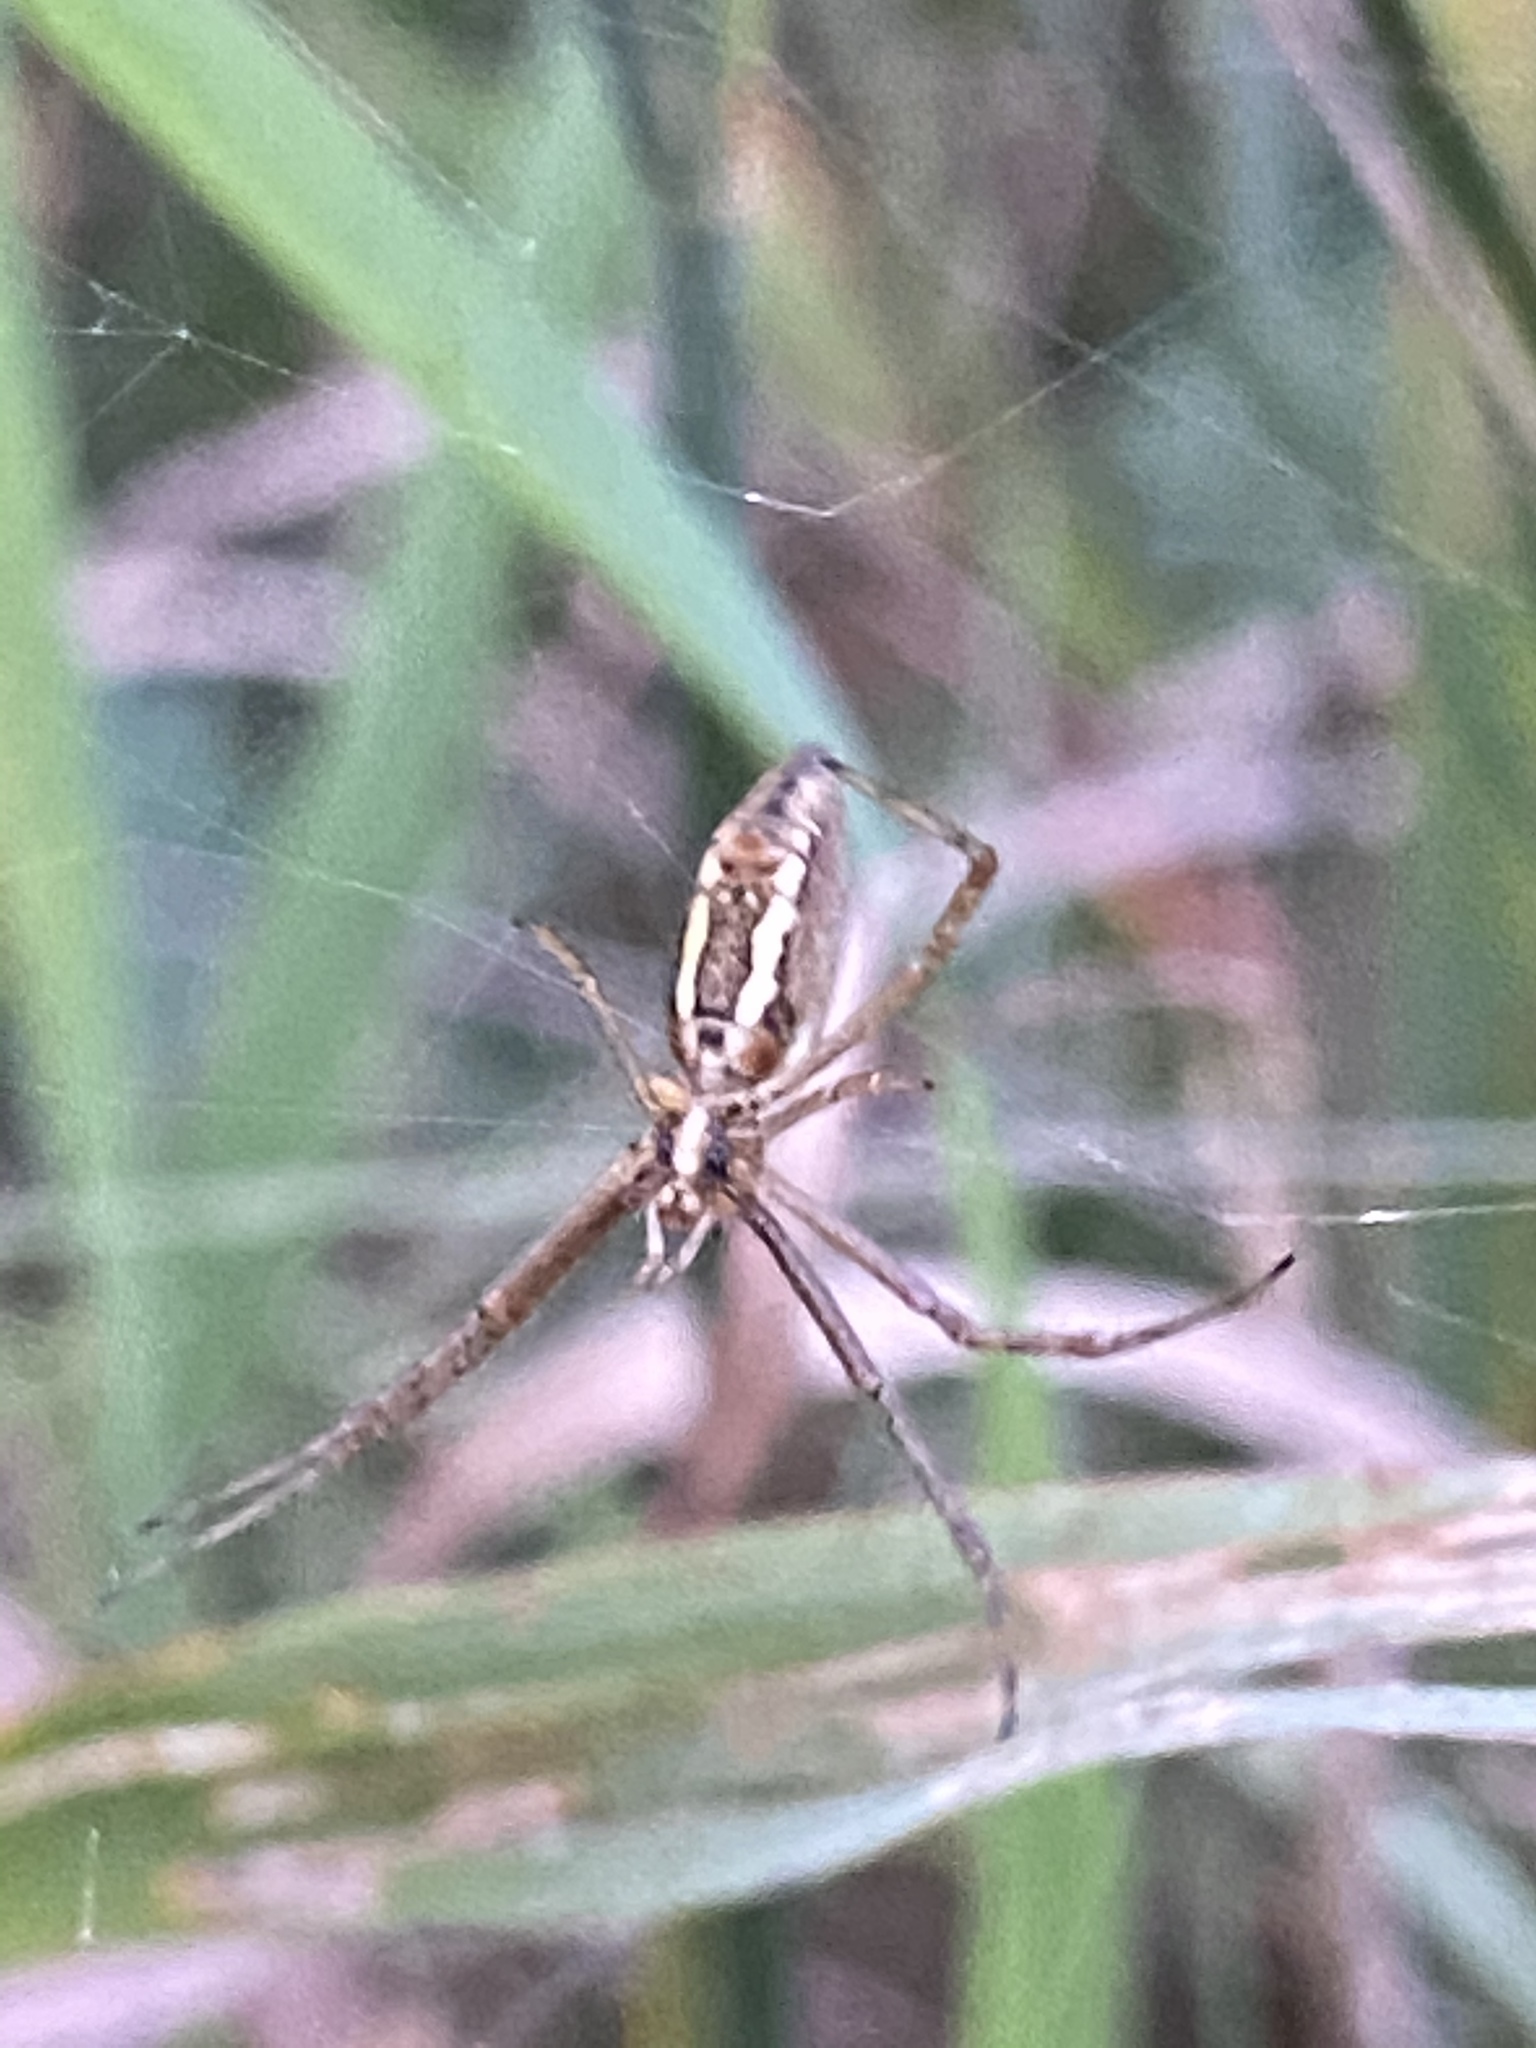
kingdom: Animalia
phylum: Arthropoda
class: Arachnida
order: Araneae
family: Araneidae
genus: Argiope
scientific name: Argiope trifasciata
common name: Banded garden spider
